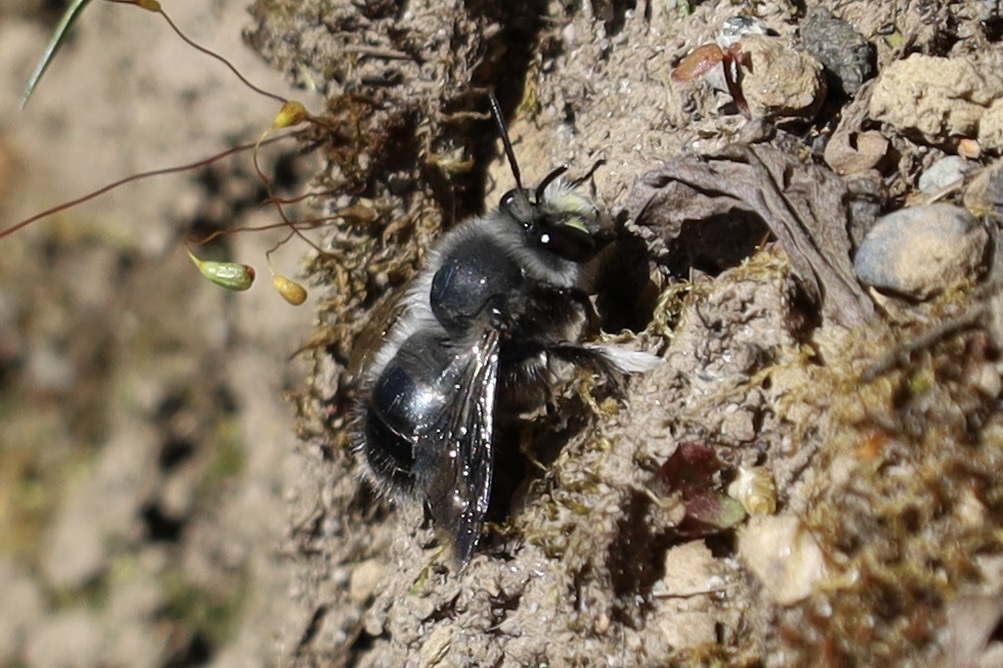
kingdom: Animalia
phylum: Arthropoda
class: Insecta
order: Hymenoptera
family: Apidae
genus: Anthophora
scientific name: Anthophora pacifica
